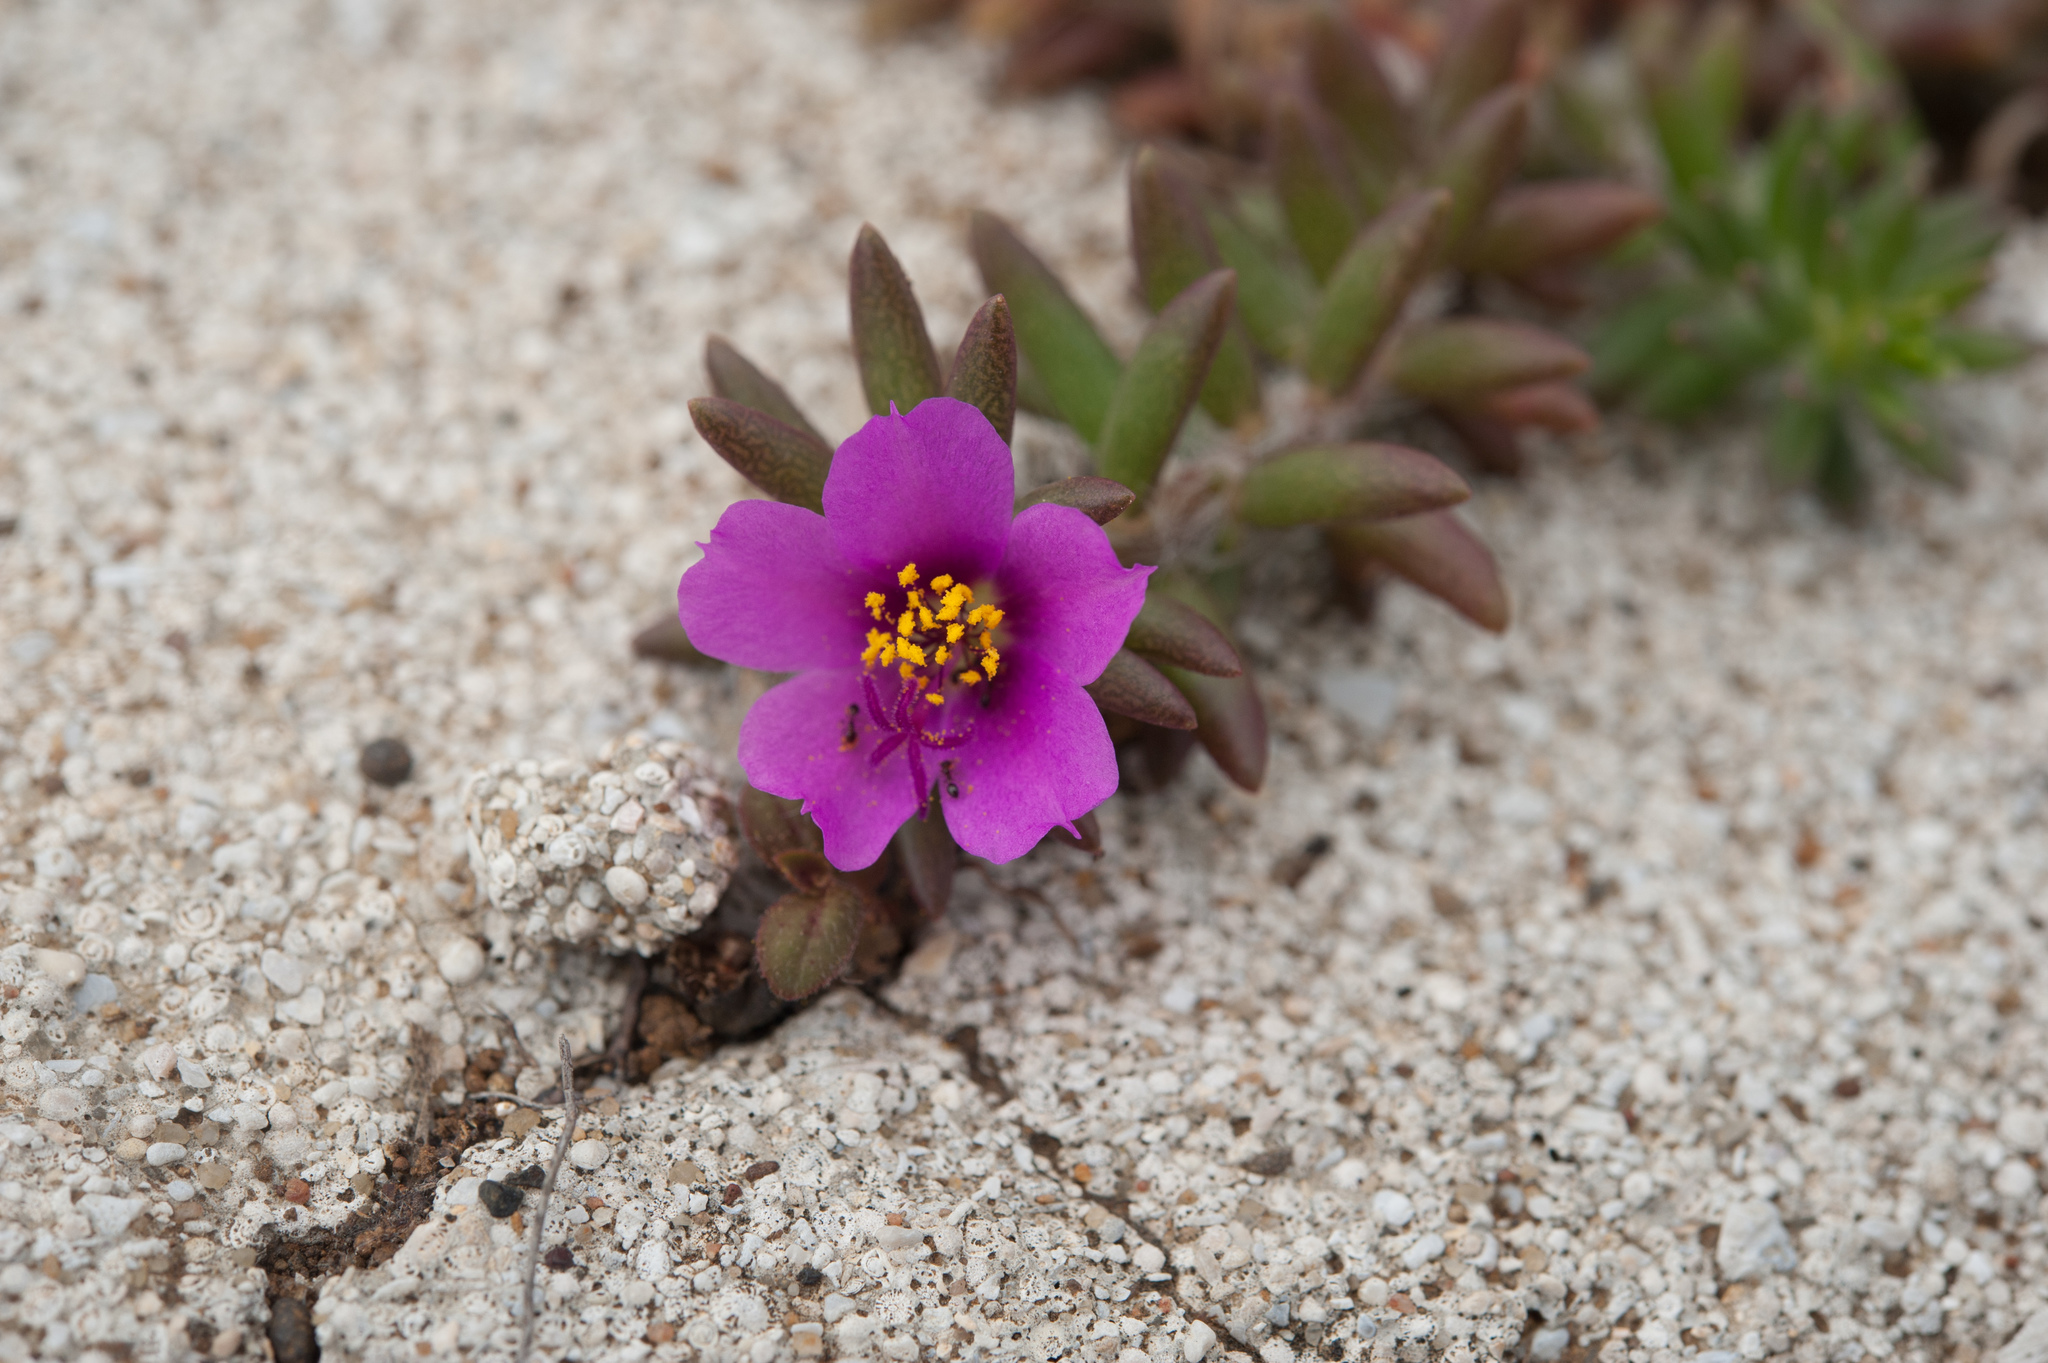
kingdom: Plantae
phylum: Tracheophyta
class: Magnoliopsida
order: Caryophyllales
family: Portulacaceae
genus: Portulaca
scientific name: Portulaca pilosa
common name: Kiss me quick
